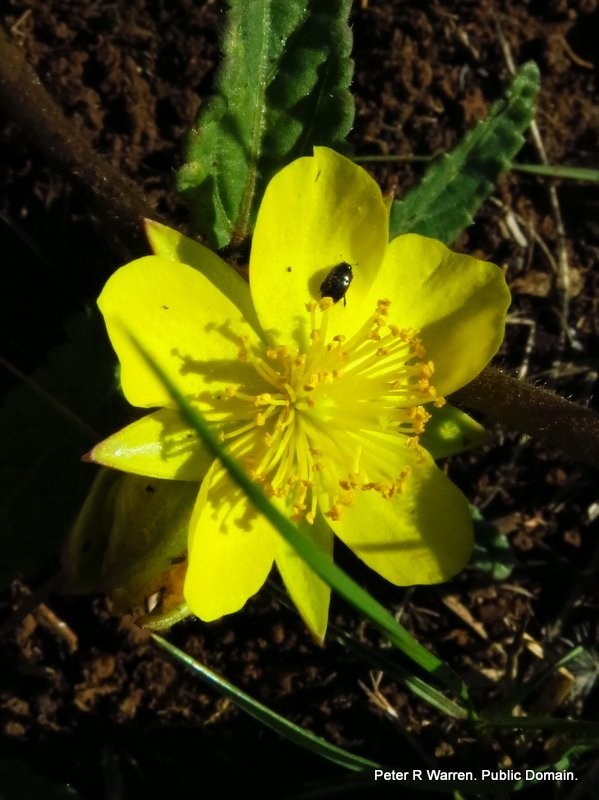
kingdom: Plantae
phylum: Tracheophyta
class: Magnoliopsida
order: Malvales
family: Malvaceae
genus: Corchorus
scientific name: Corchorus confusus
